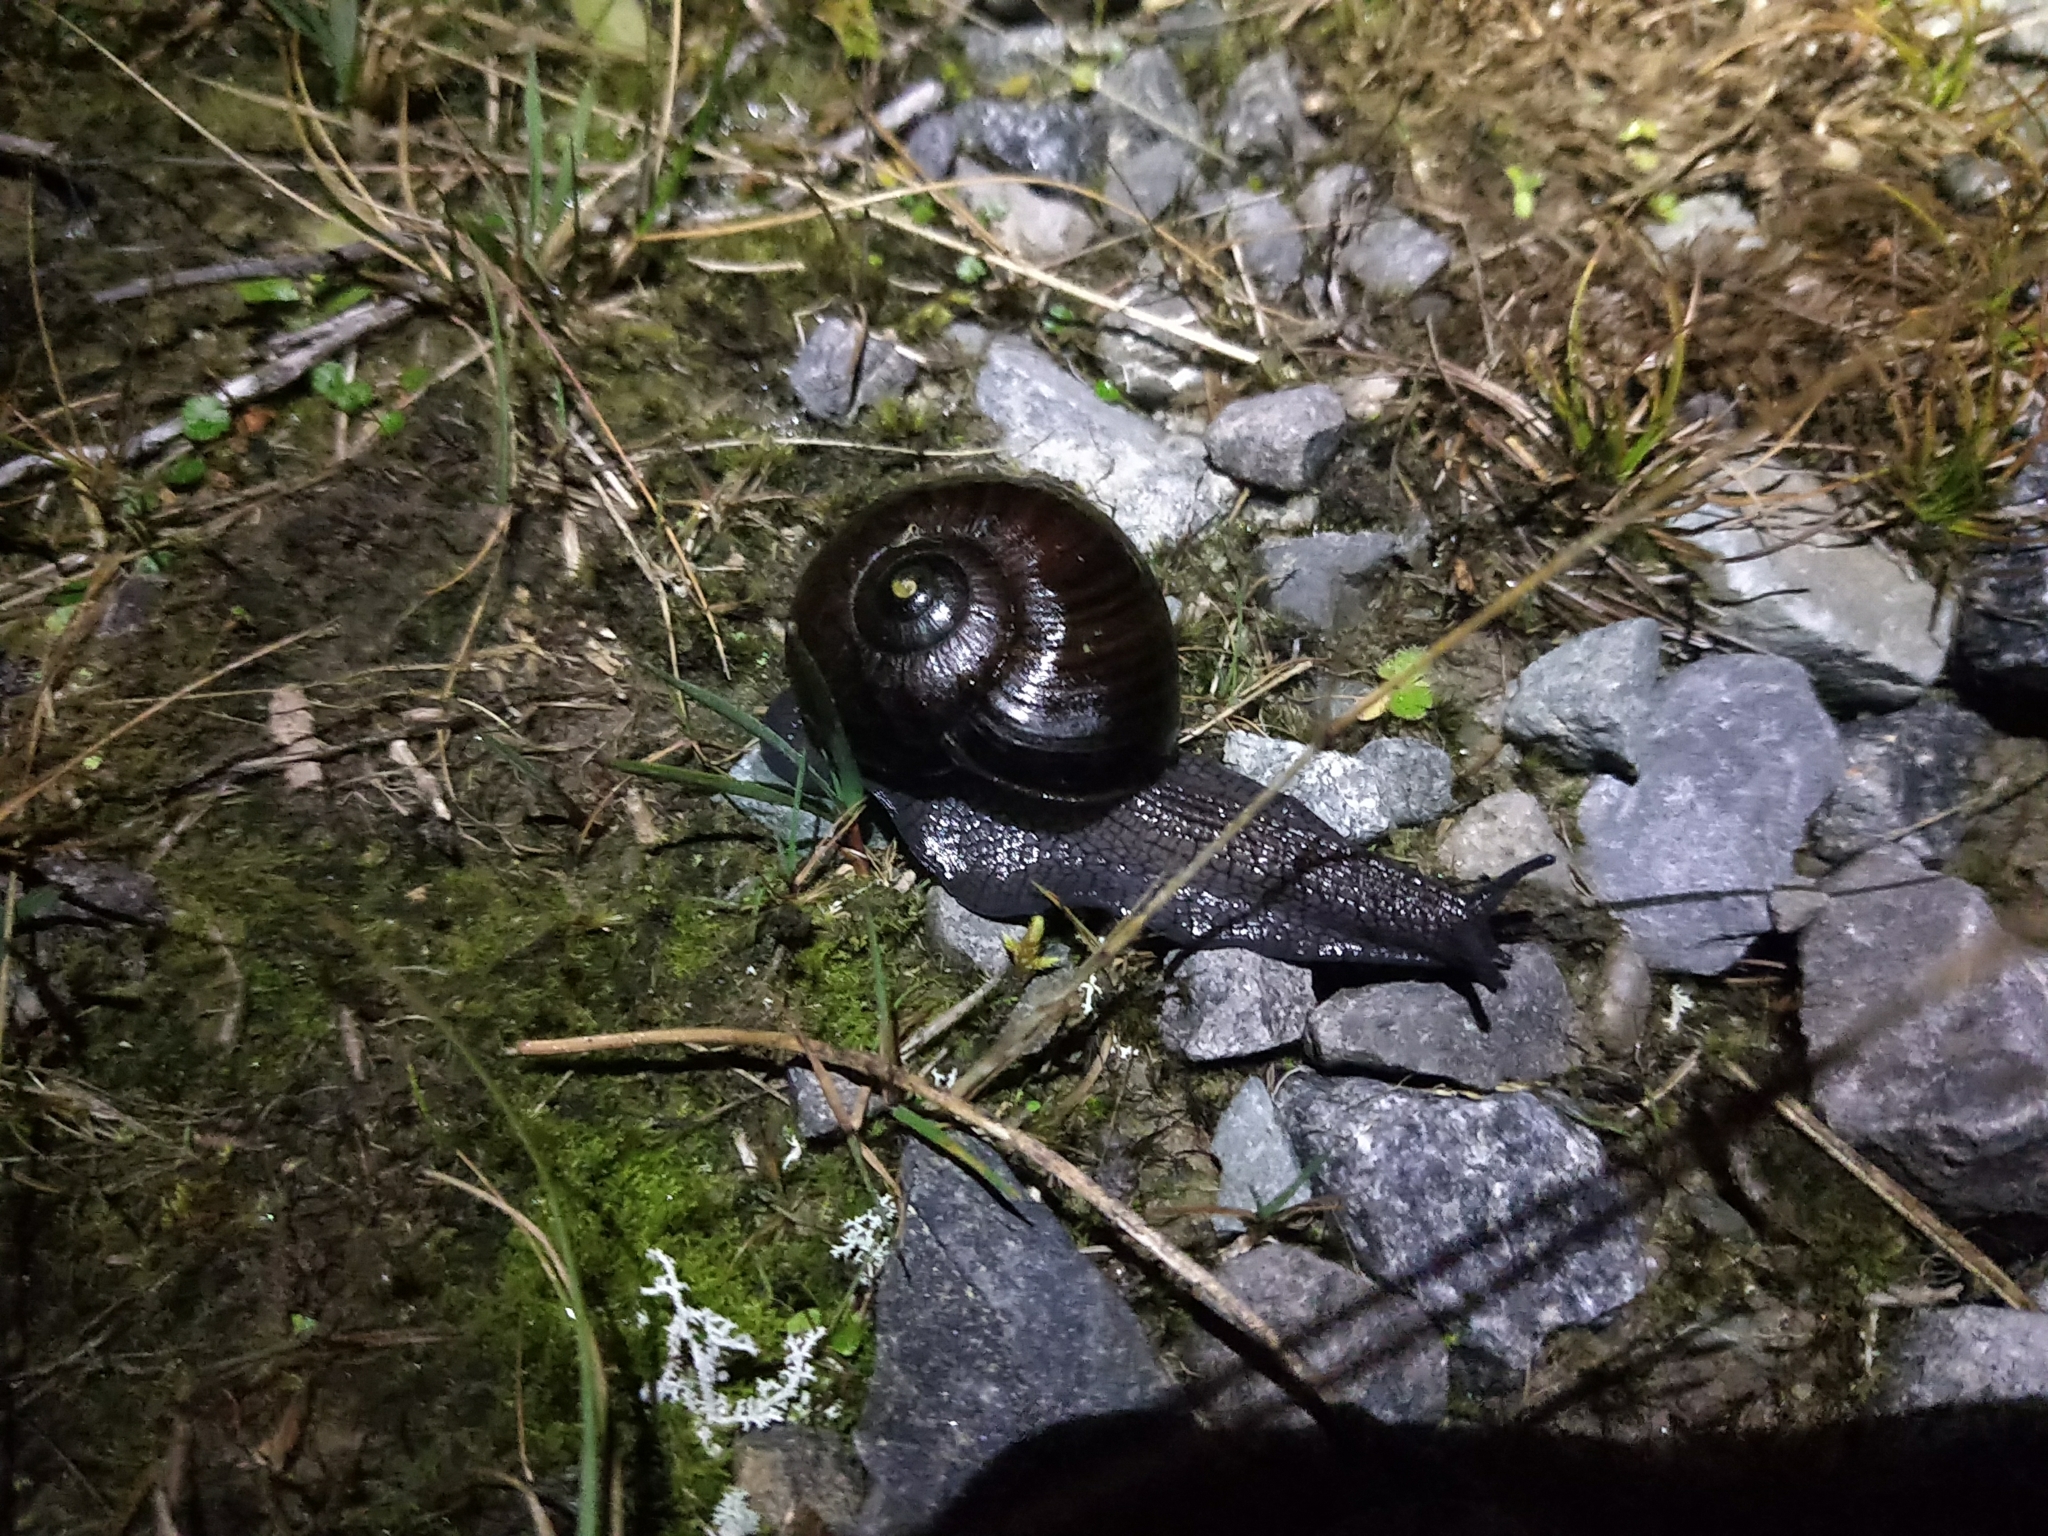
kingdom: Animalia
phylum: Mollusca
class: Gastropoda
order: Stylommatophora
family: Rhytididae
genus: Powelliphanta
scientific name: Powelliphanta patrickensis
